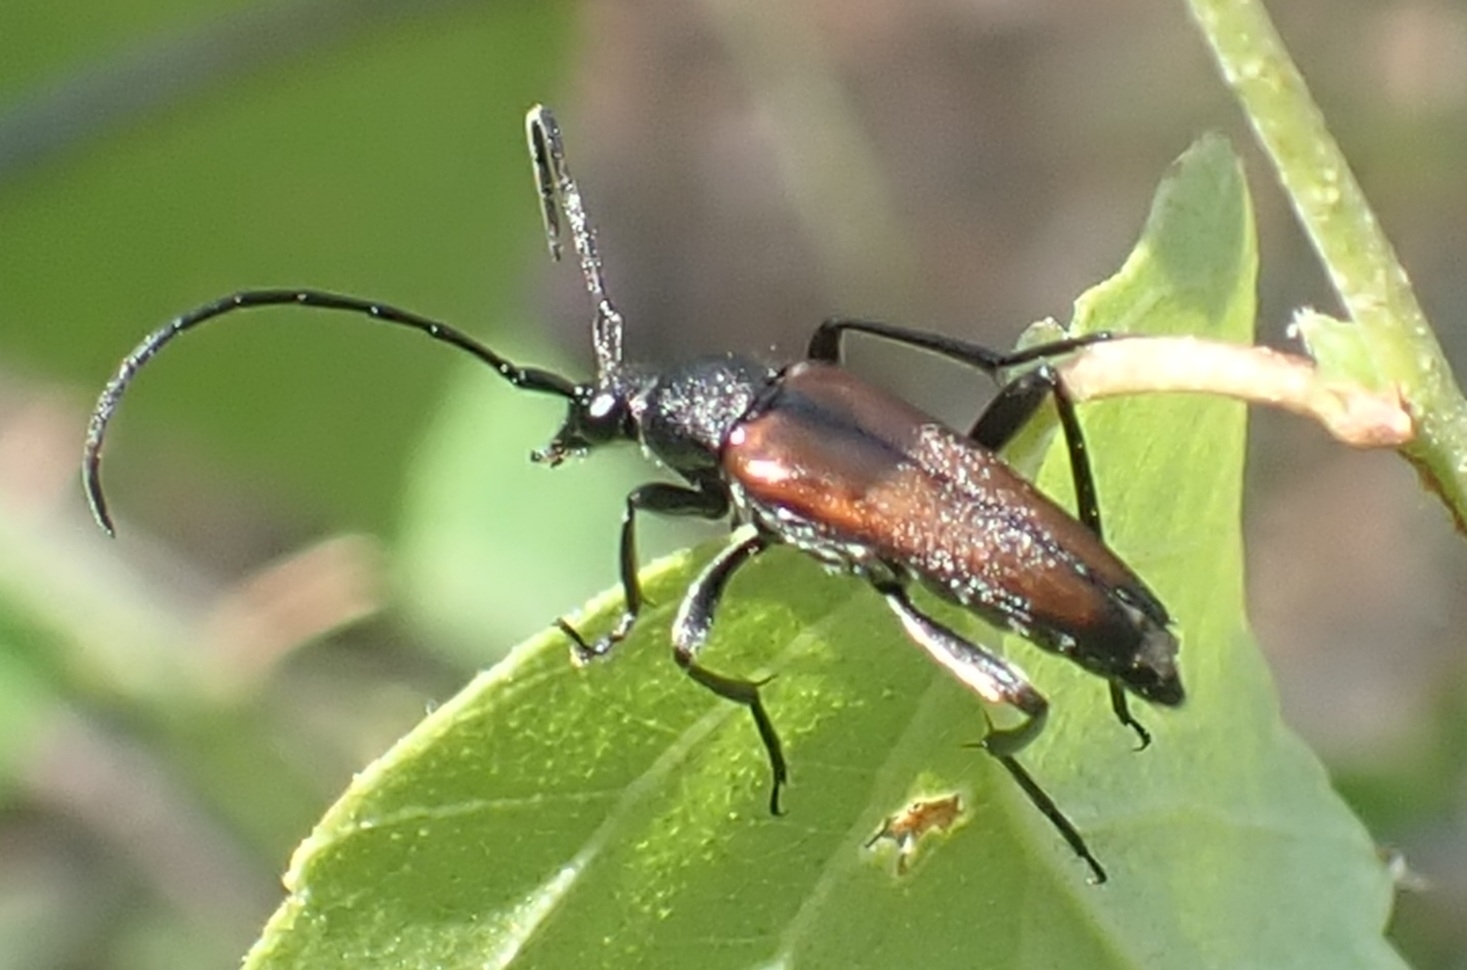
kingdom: Animalia
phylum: Arthropoda
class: Insecta
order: Coleoptera
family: Cerambycidae
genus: Stenurella
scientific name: Stenurella melanura
